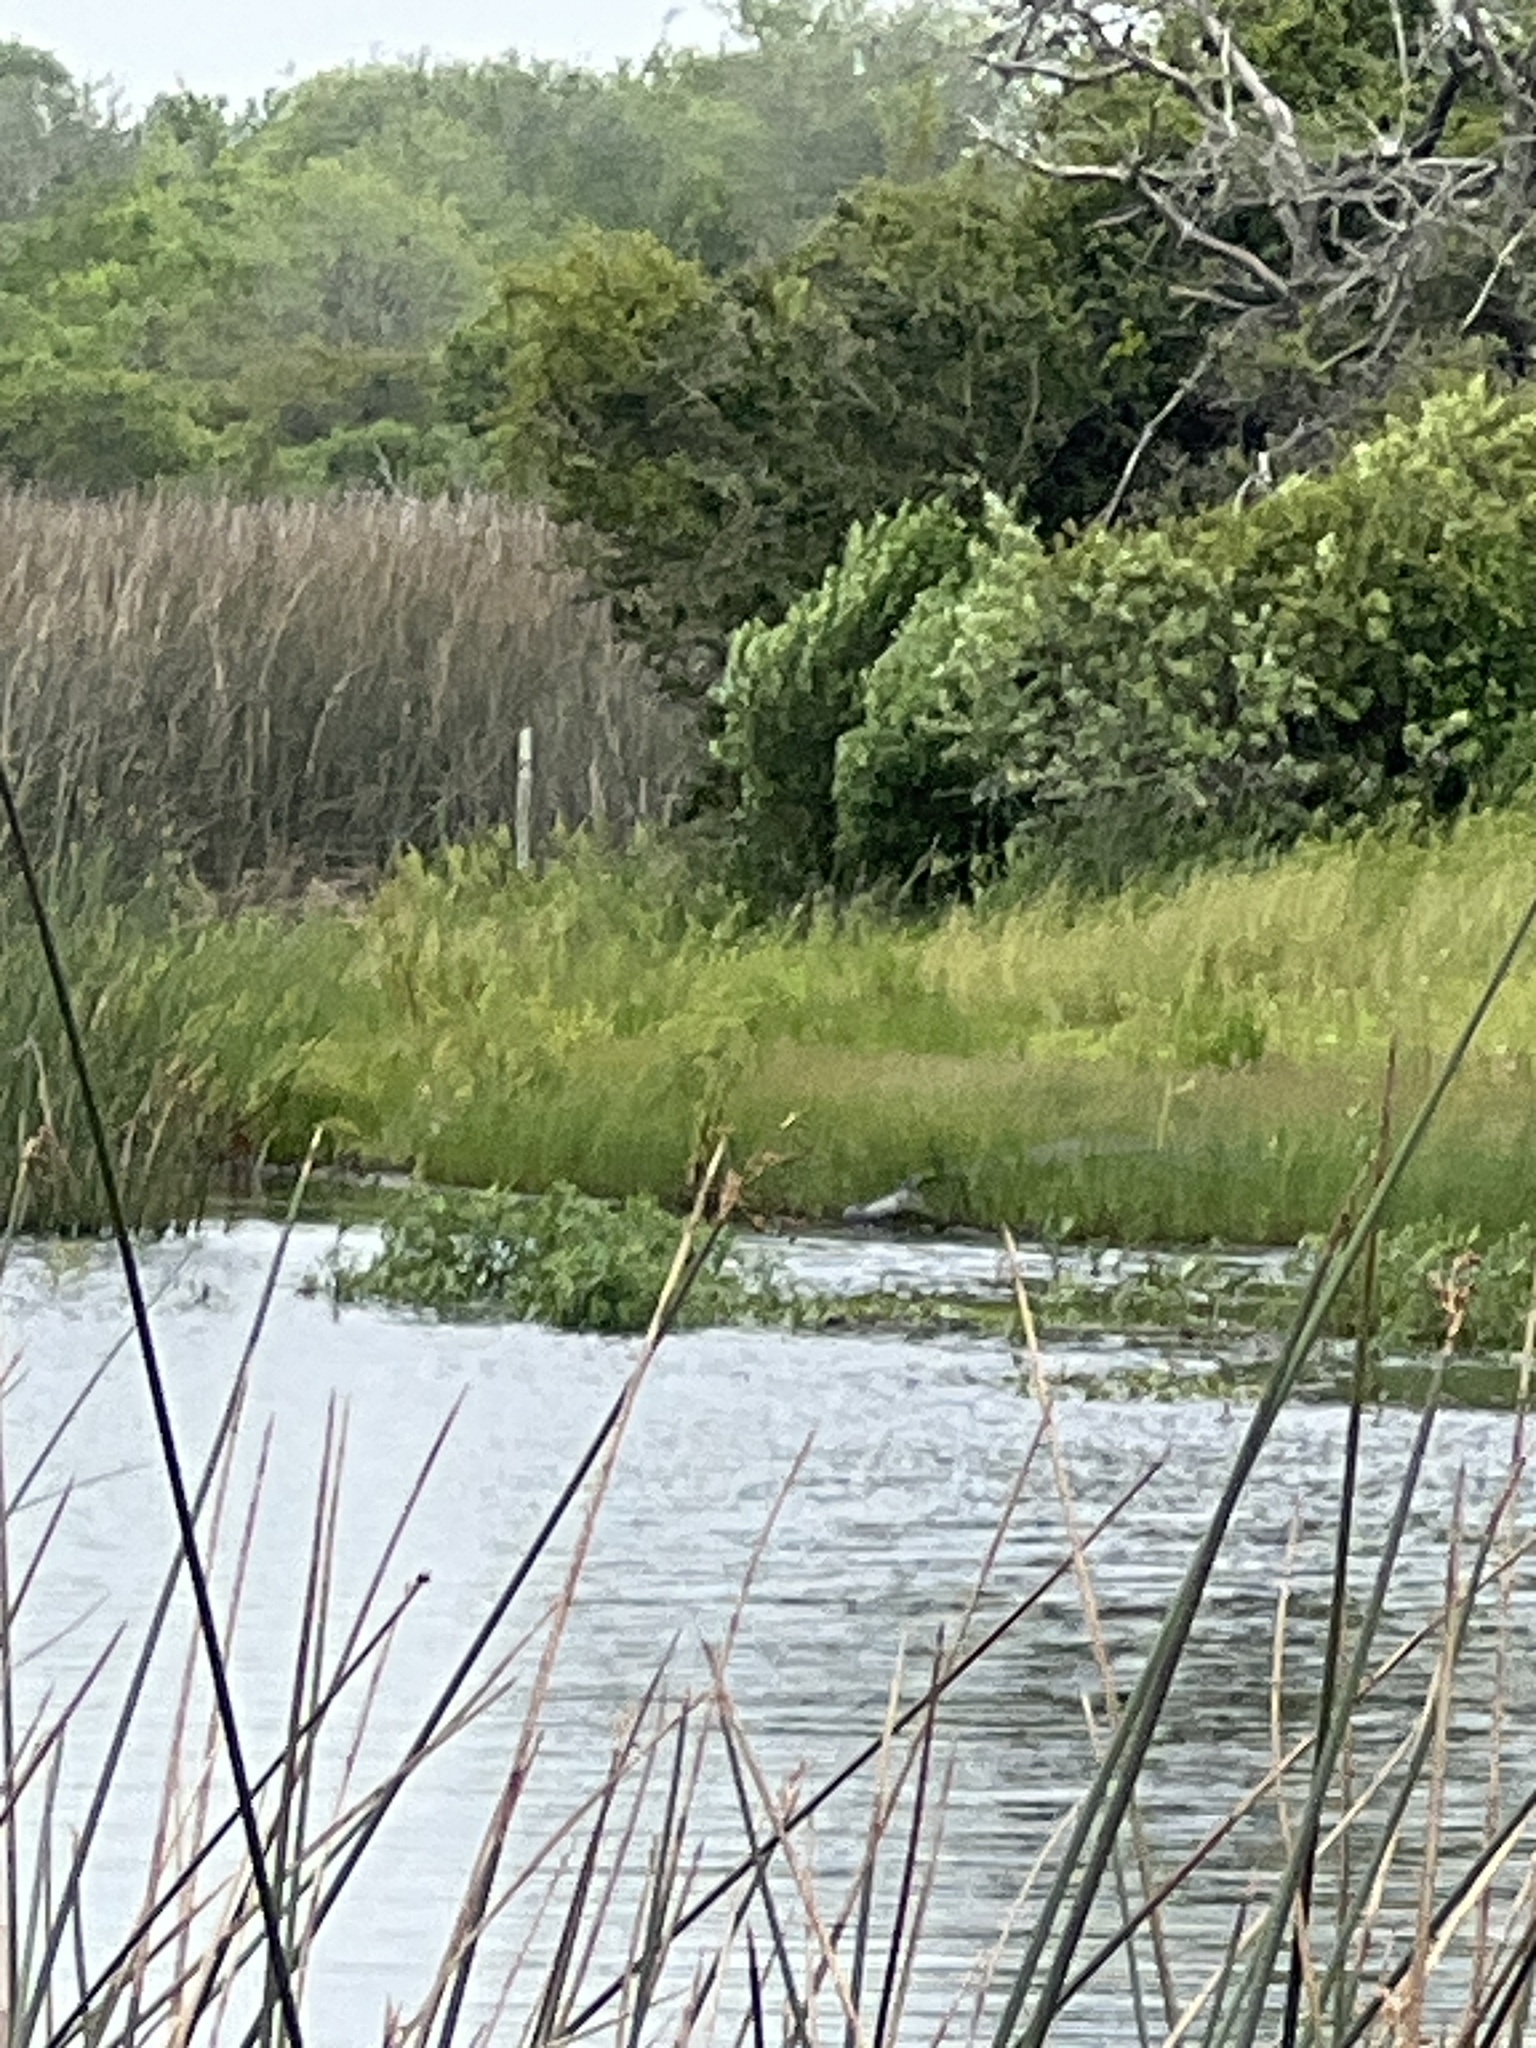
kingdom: Animalia
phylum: Chordata
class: Crocodylia
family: Alligatoridae
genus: Alligator
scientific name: Alligator mississippiensis
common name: American alligator
